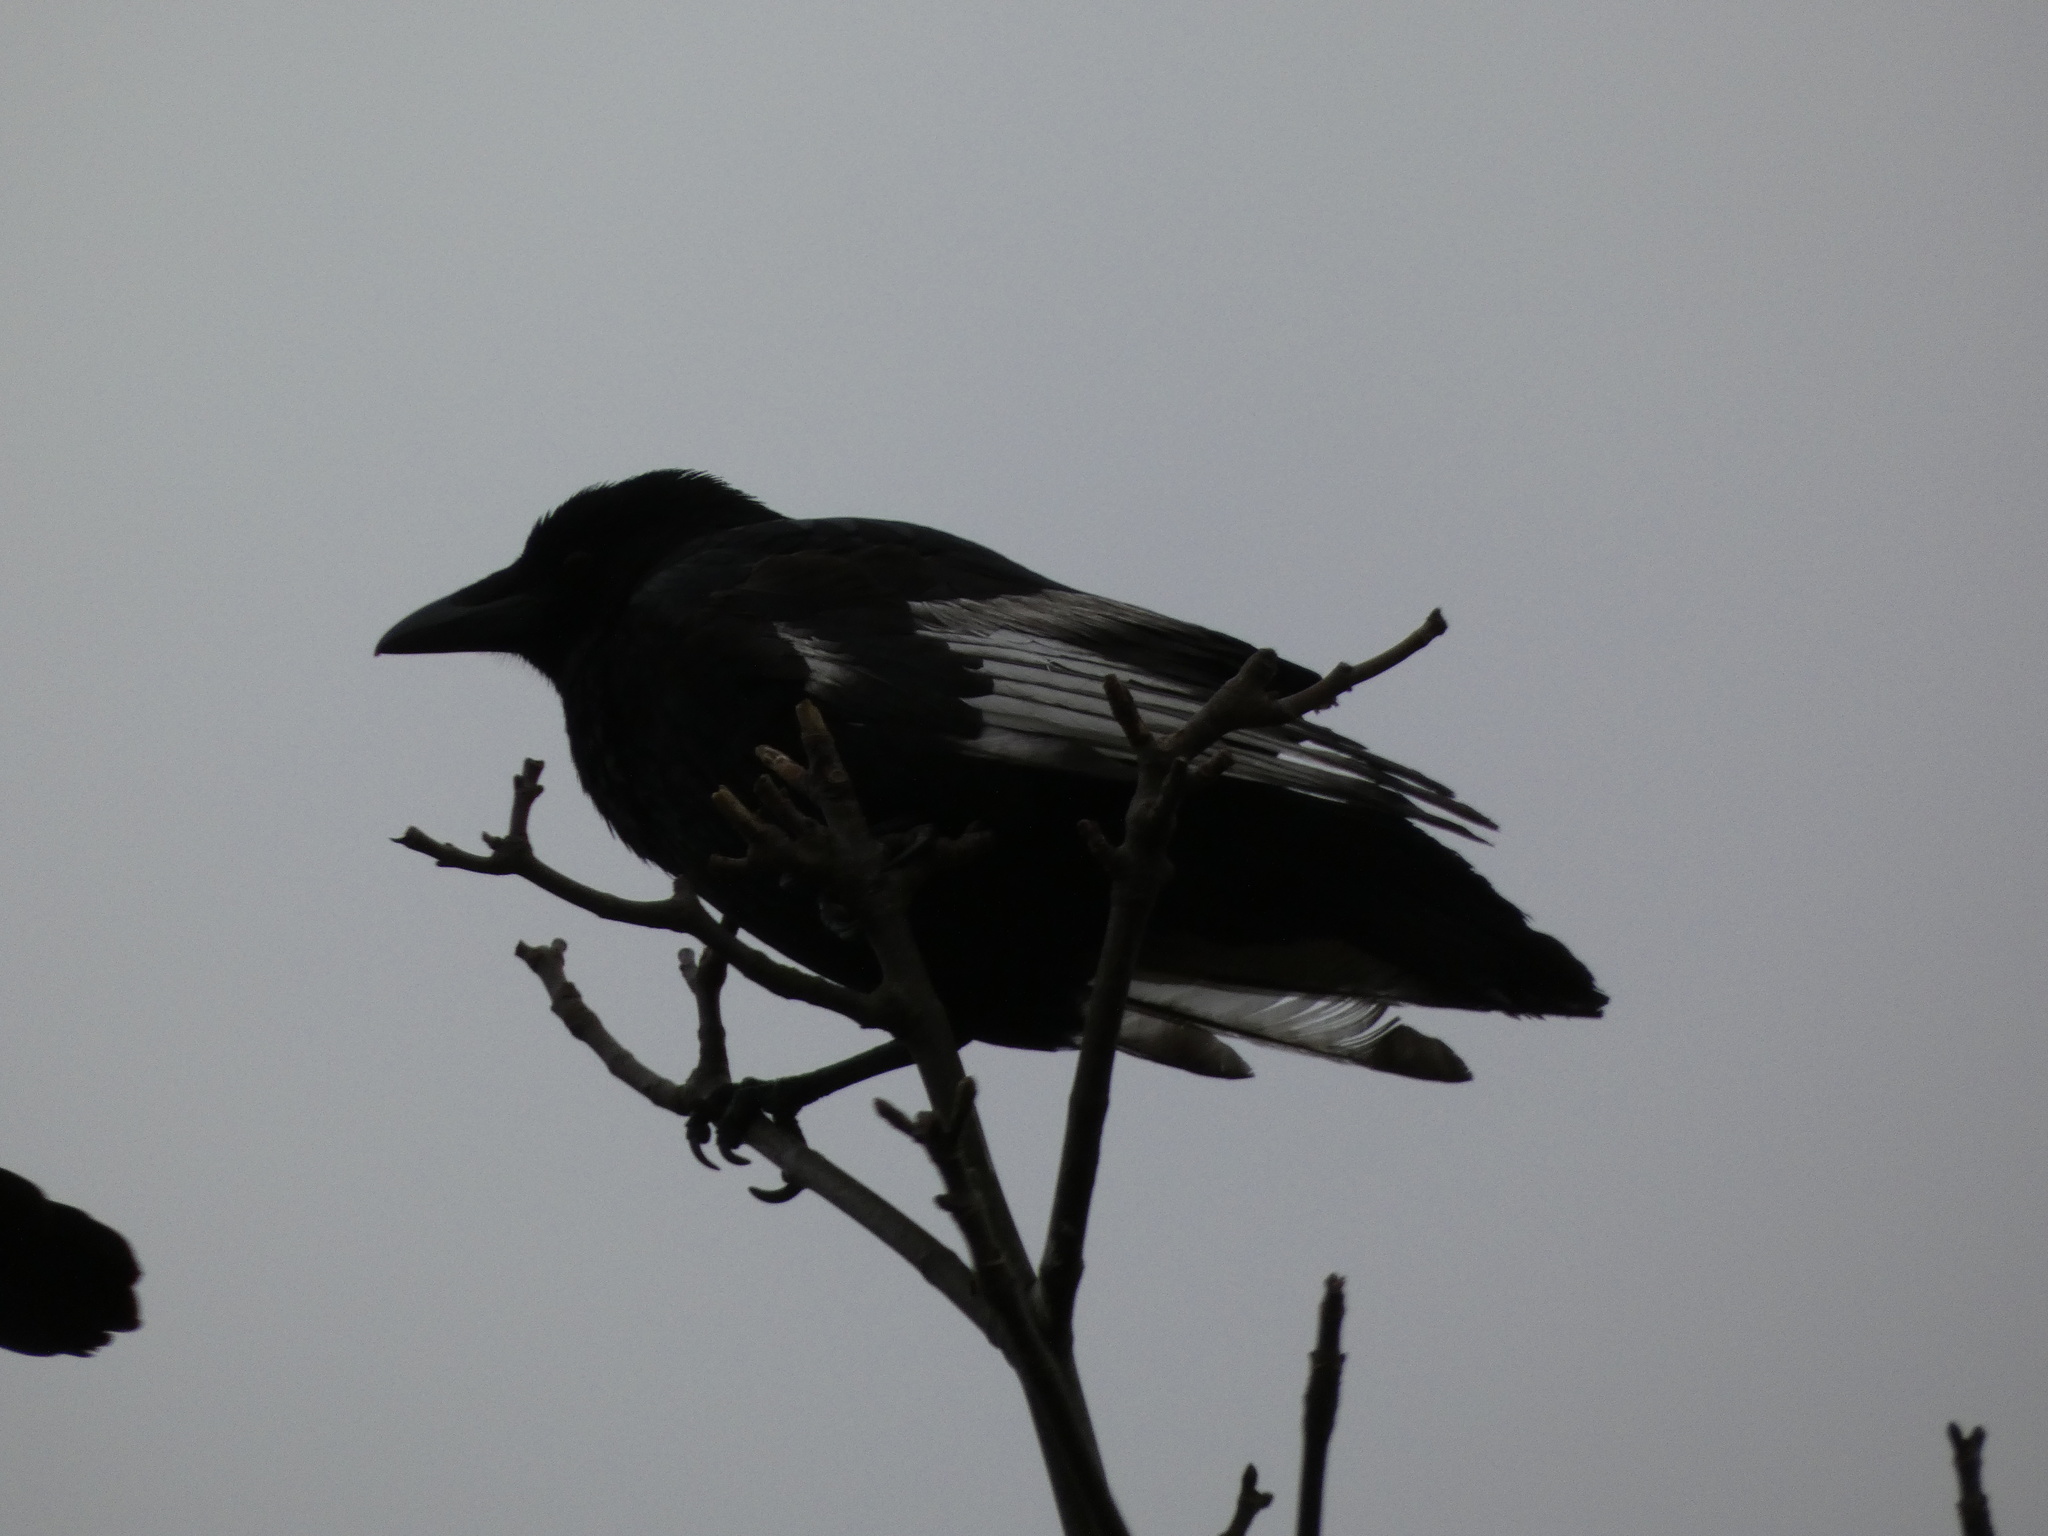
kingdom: Animalia
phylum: Chordata
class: Aves
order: Passeriformes
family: Corvidae
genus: Corvus
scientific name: Corvus corone
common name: Carrion crow
